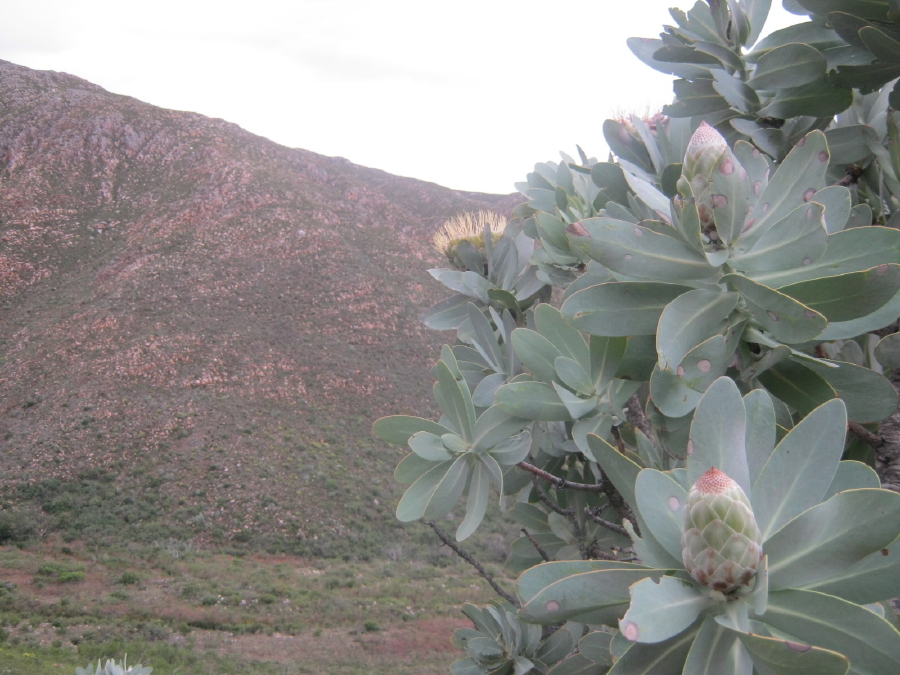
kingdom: Plantae
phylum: Tracheophyta
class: Magnoliopsida
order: Proteales
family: Proteaceae
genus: Protea
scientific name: Protea nitida
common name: Tree protea
